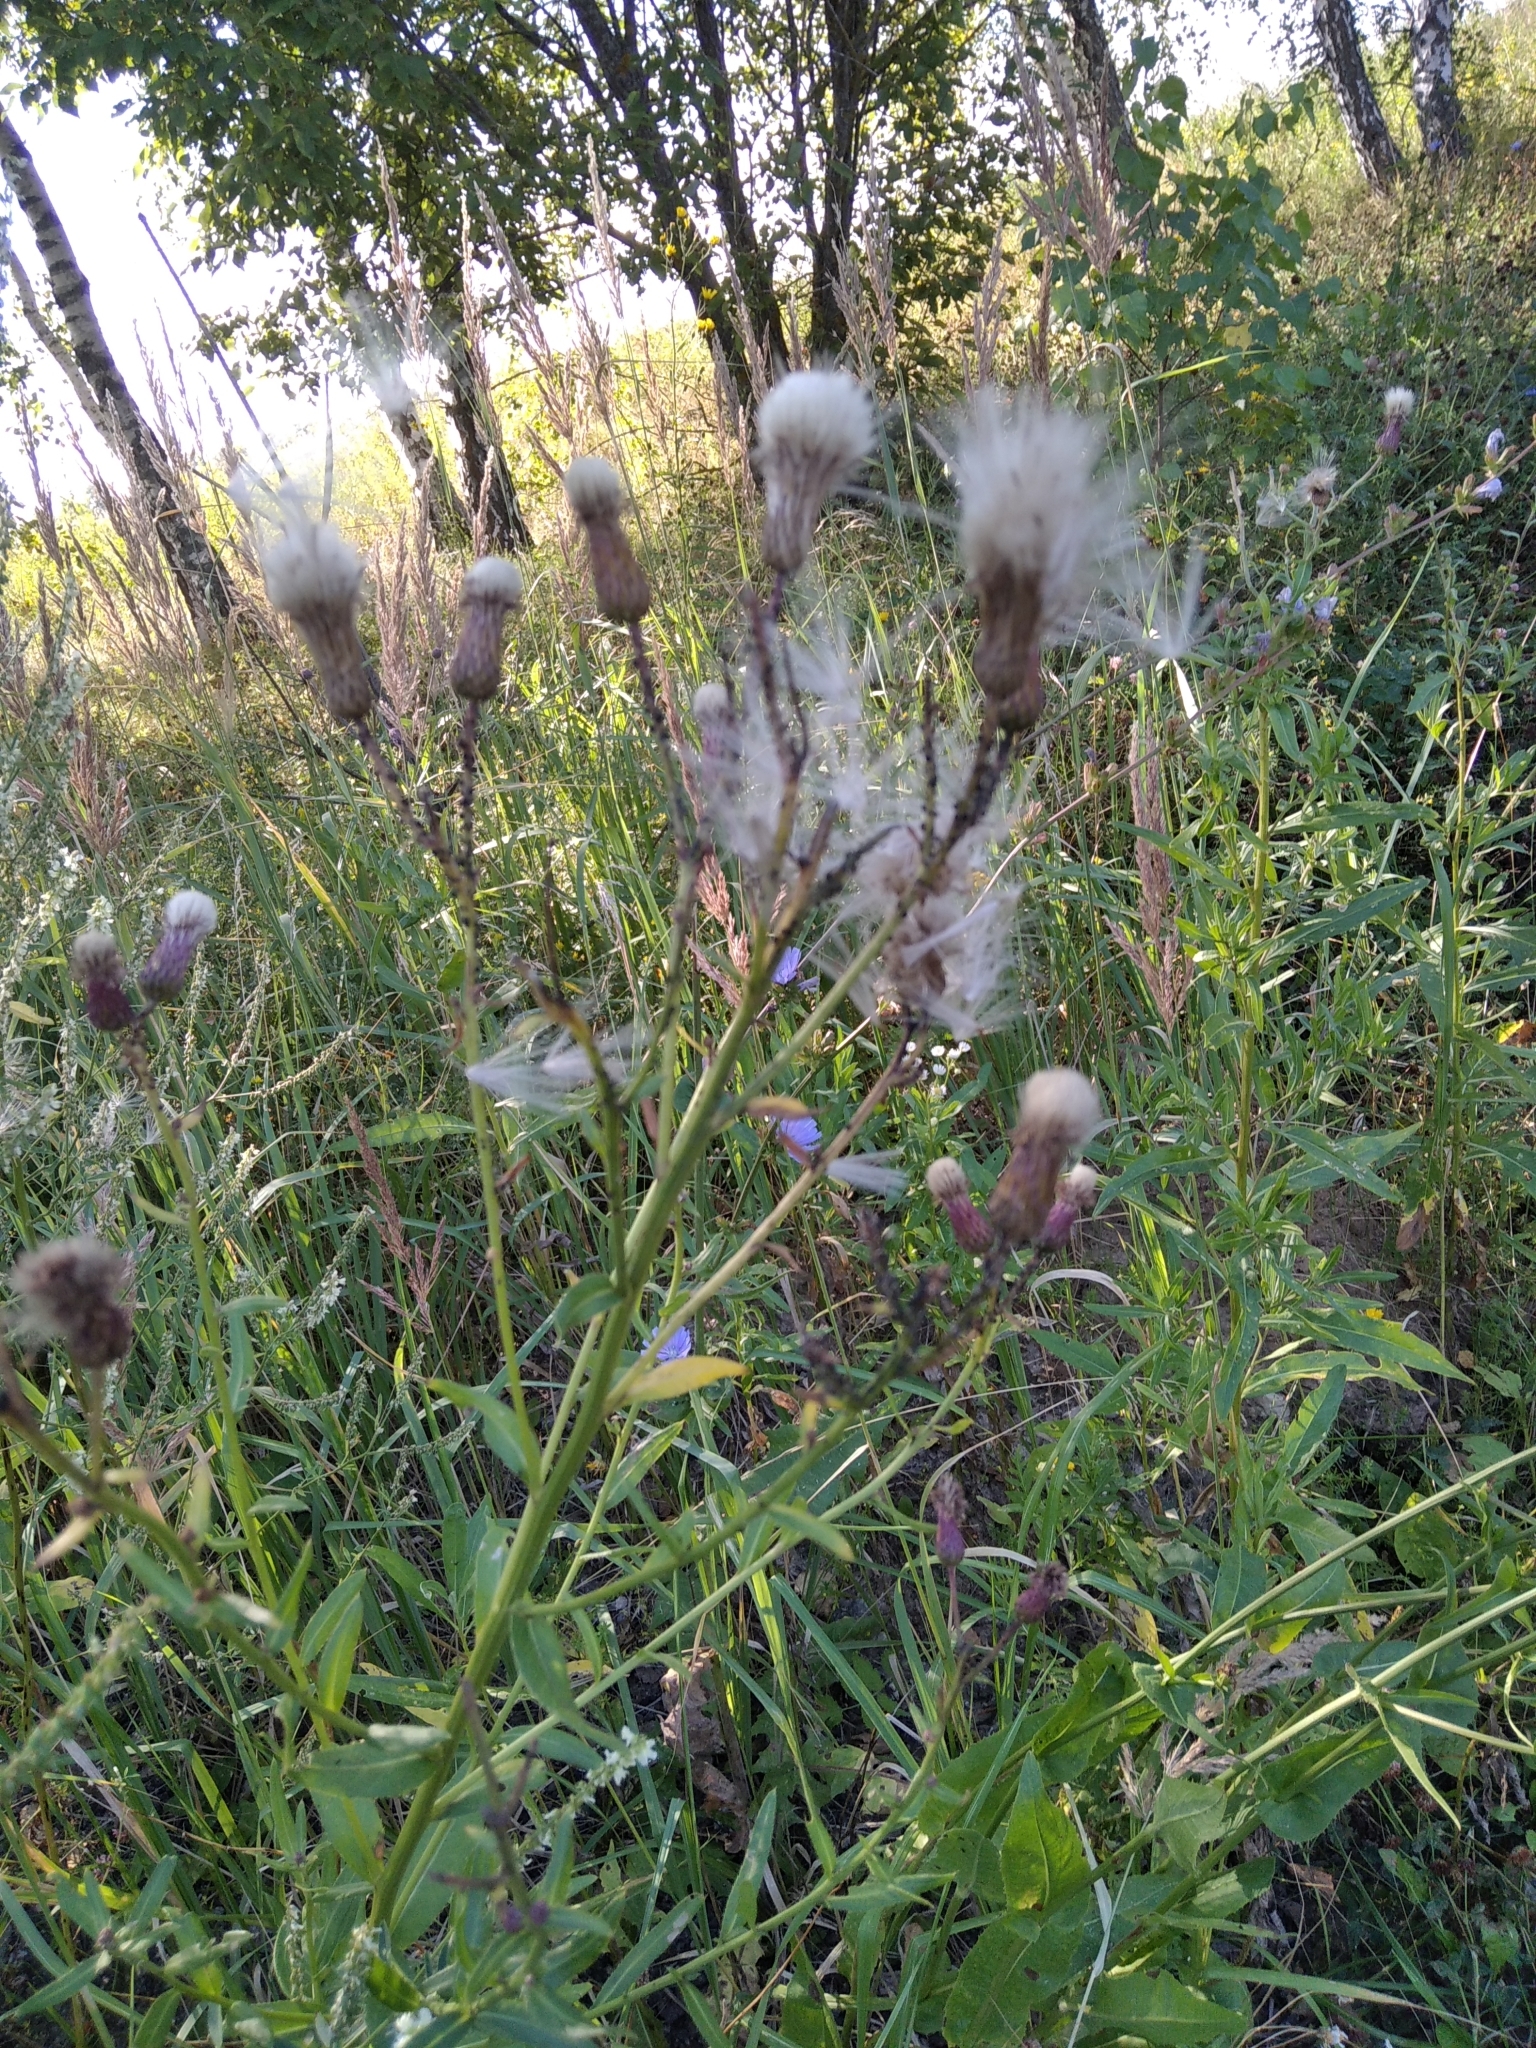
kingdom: Plantae
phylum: Tracheophyta
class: Magnoliopsida
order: Asterales
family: Asteraceae
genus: Cirsium
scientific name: Cirsium arvense
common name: Creeping thistle
